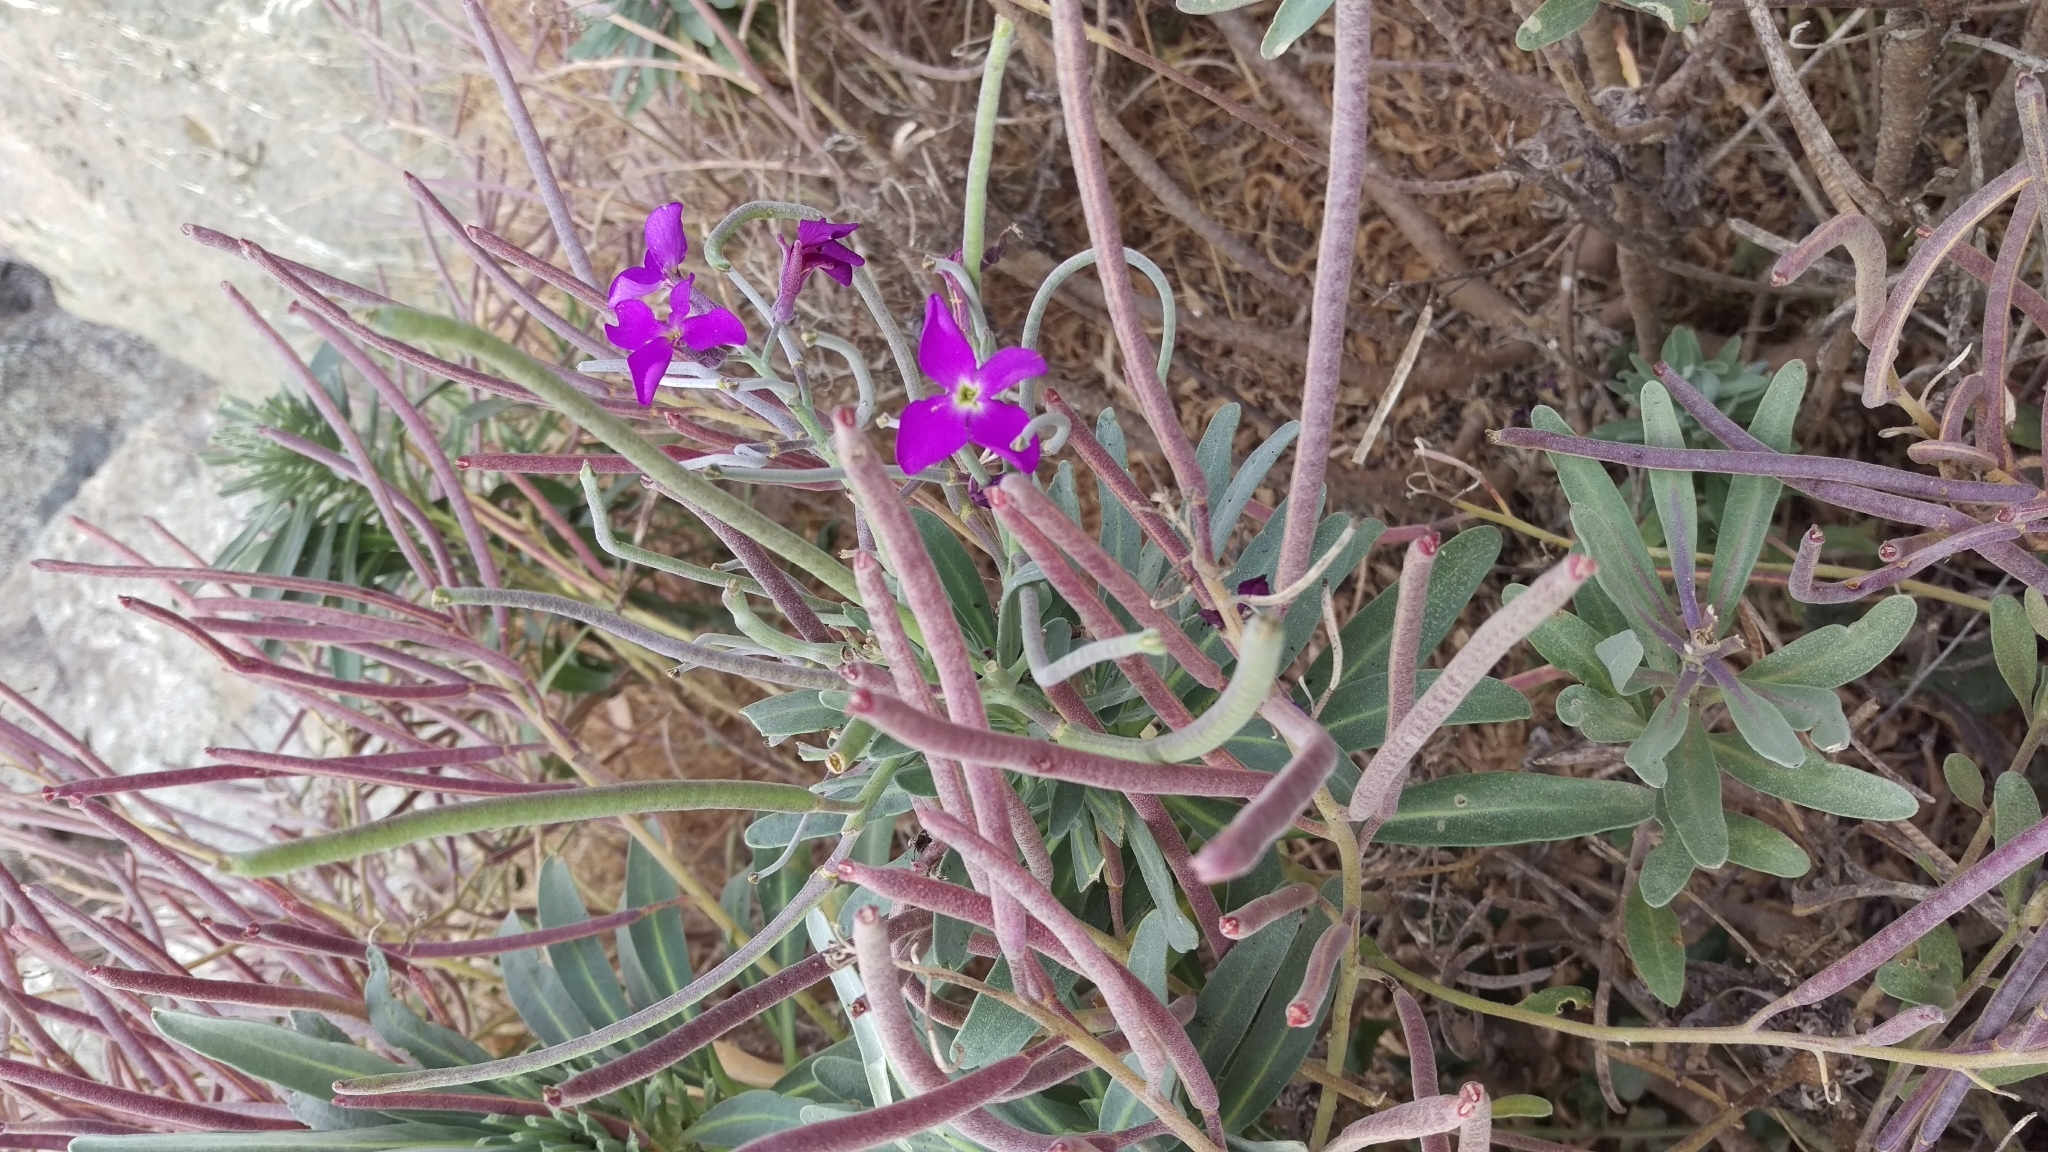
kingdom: Plantae
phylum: Tracheophyta
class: Magnoliopsida
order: Brassicales
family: Brassicaceae
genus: Matthiola
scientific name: Matthiola incana
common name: Hoary stock
